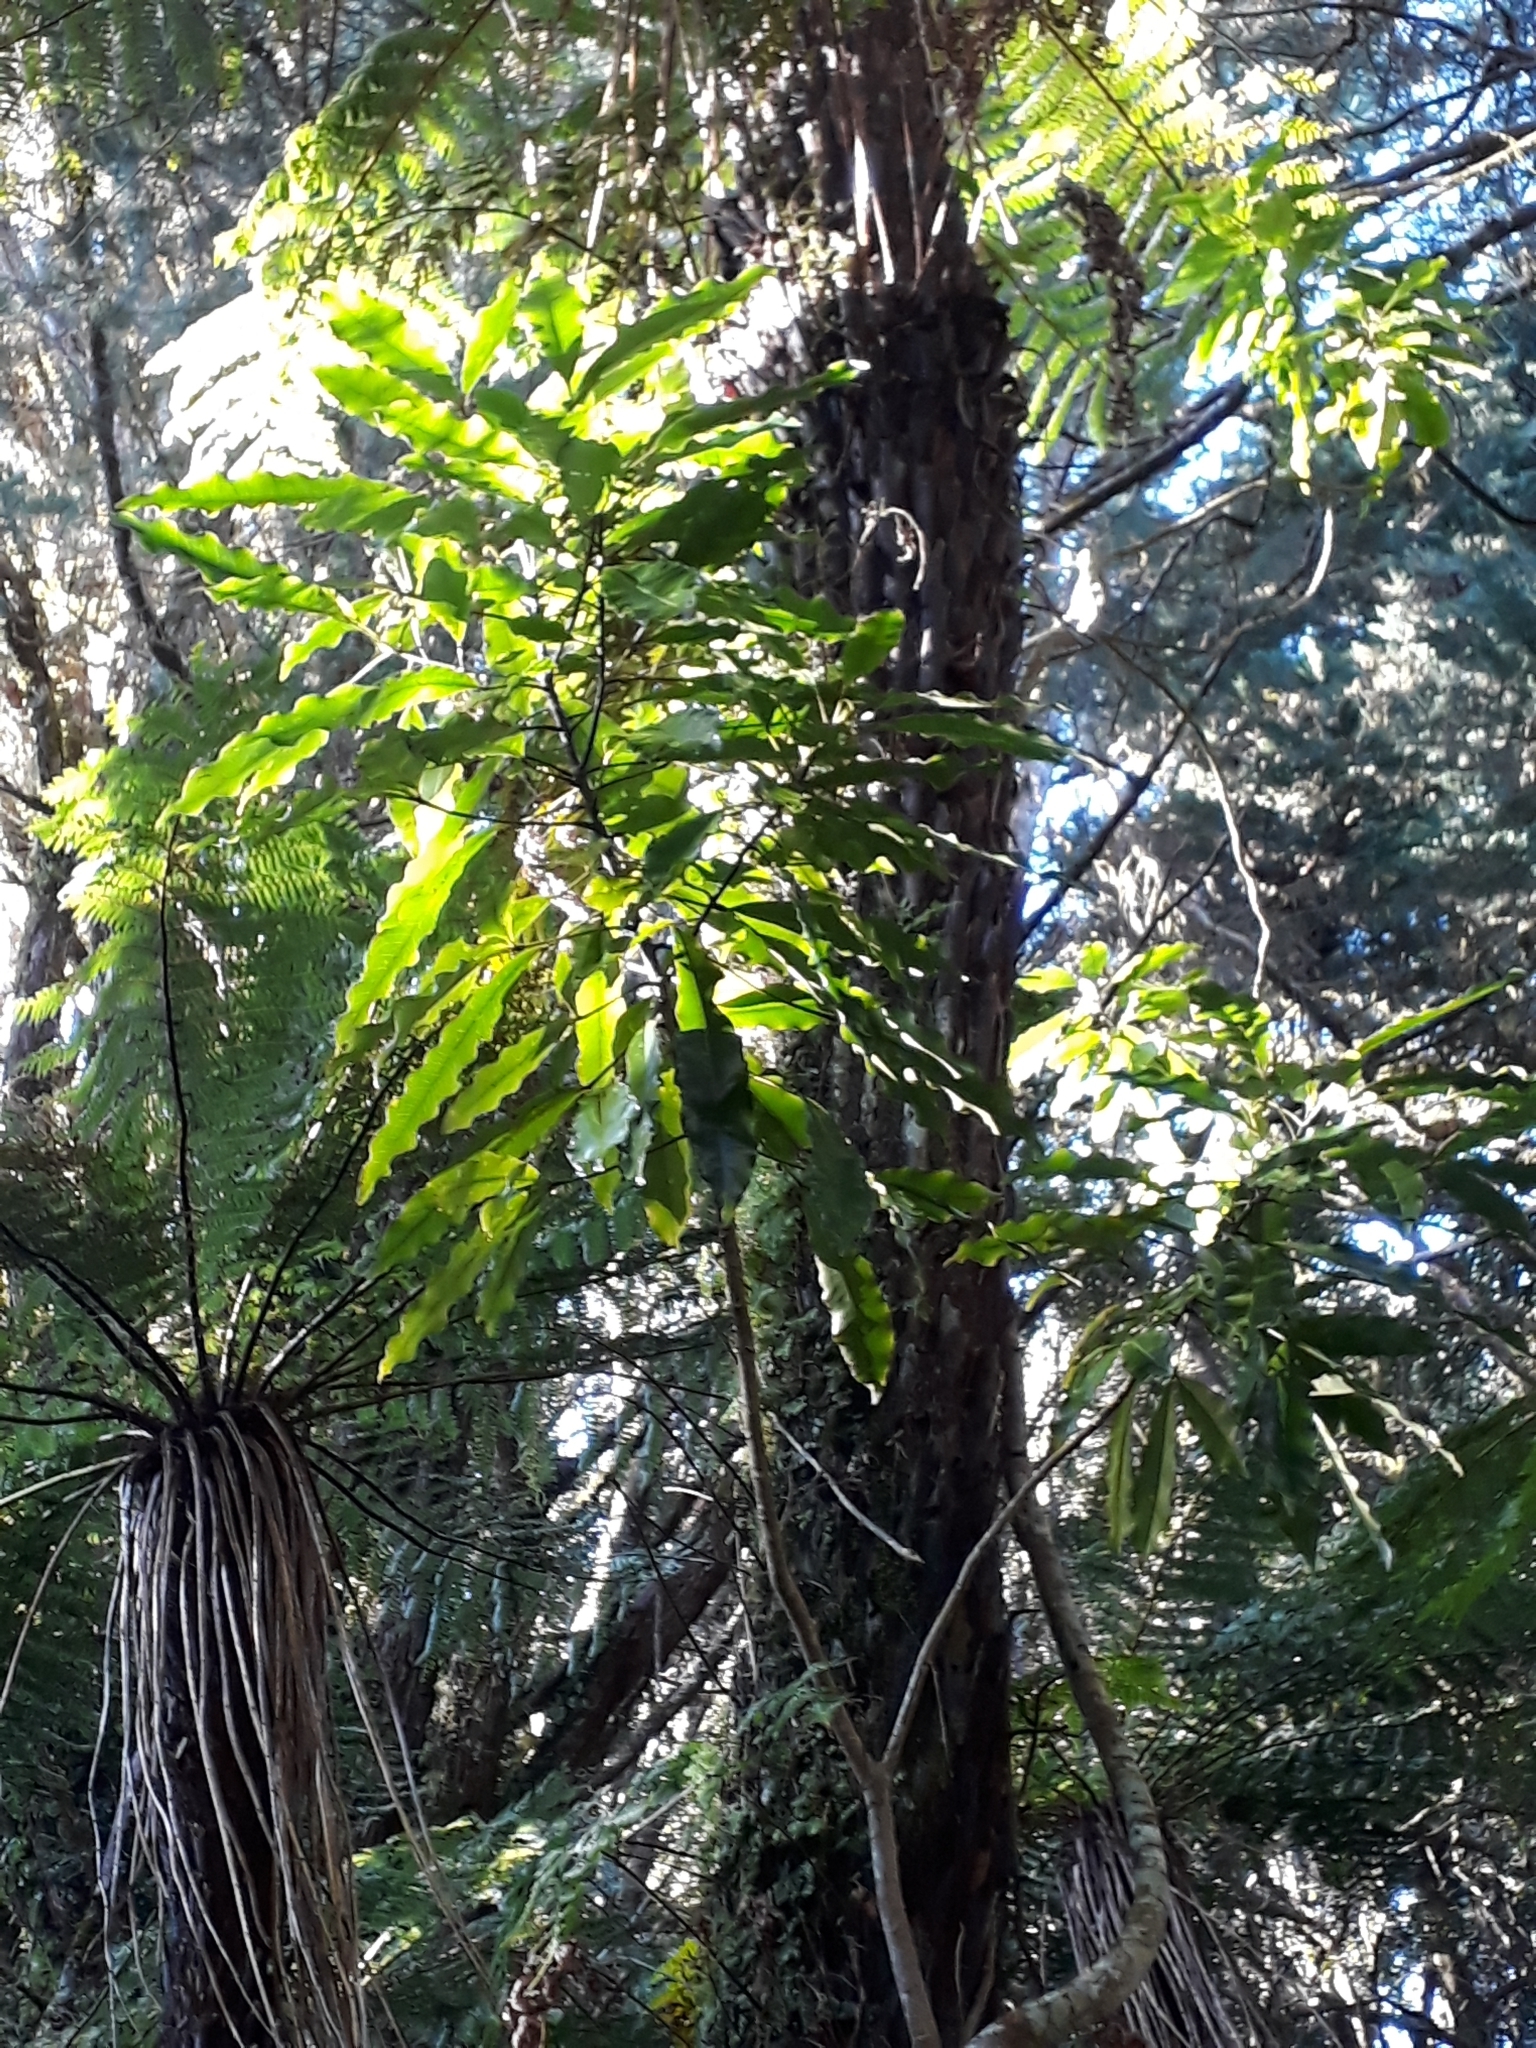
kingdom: Plantae
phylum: Tracheophyta
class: Magnoliopsida
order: Apiales
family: Araliaceae
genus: Raukaua
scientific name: Raukaua edgerleyi
